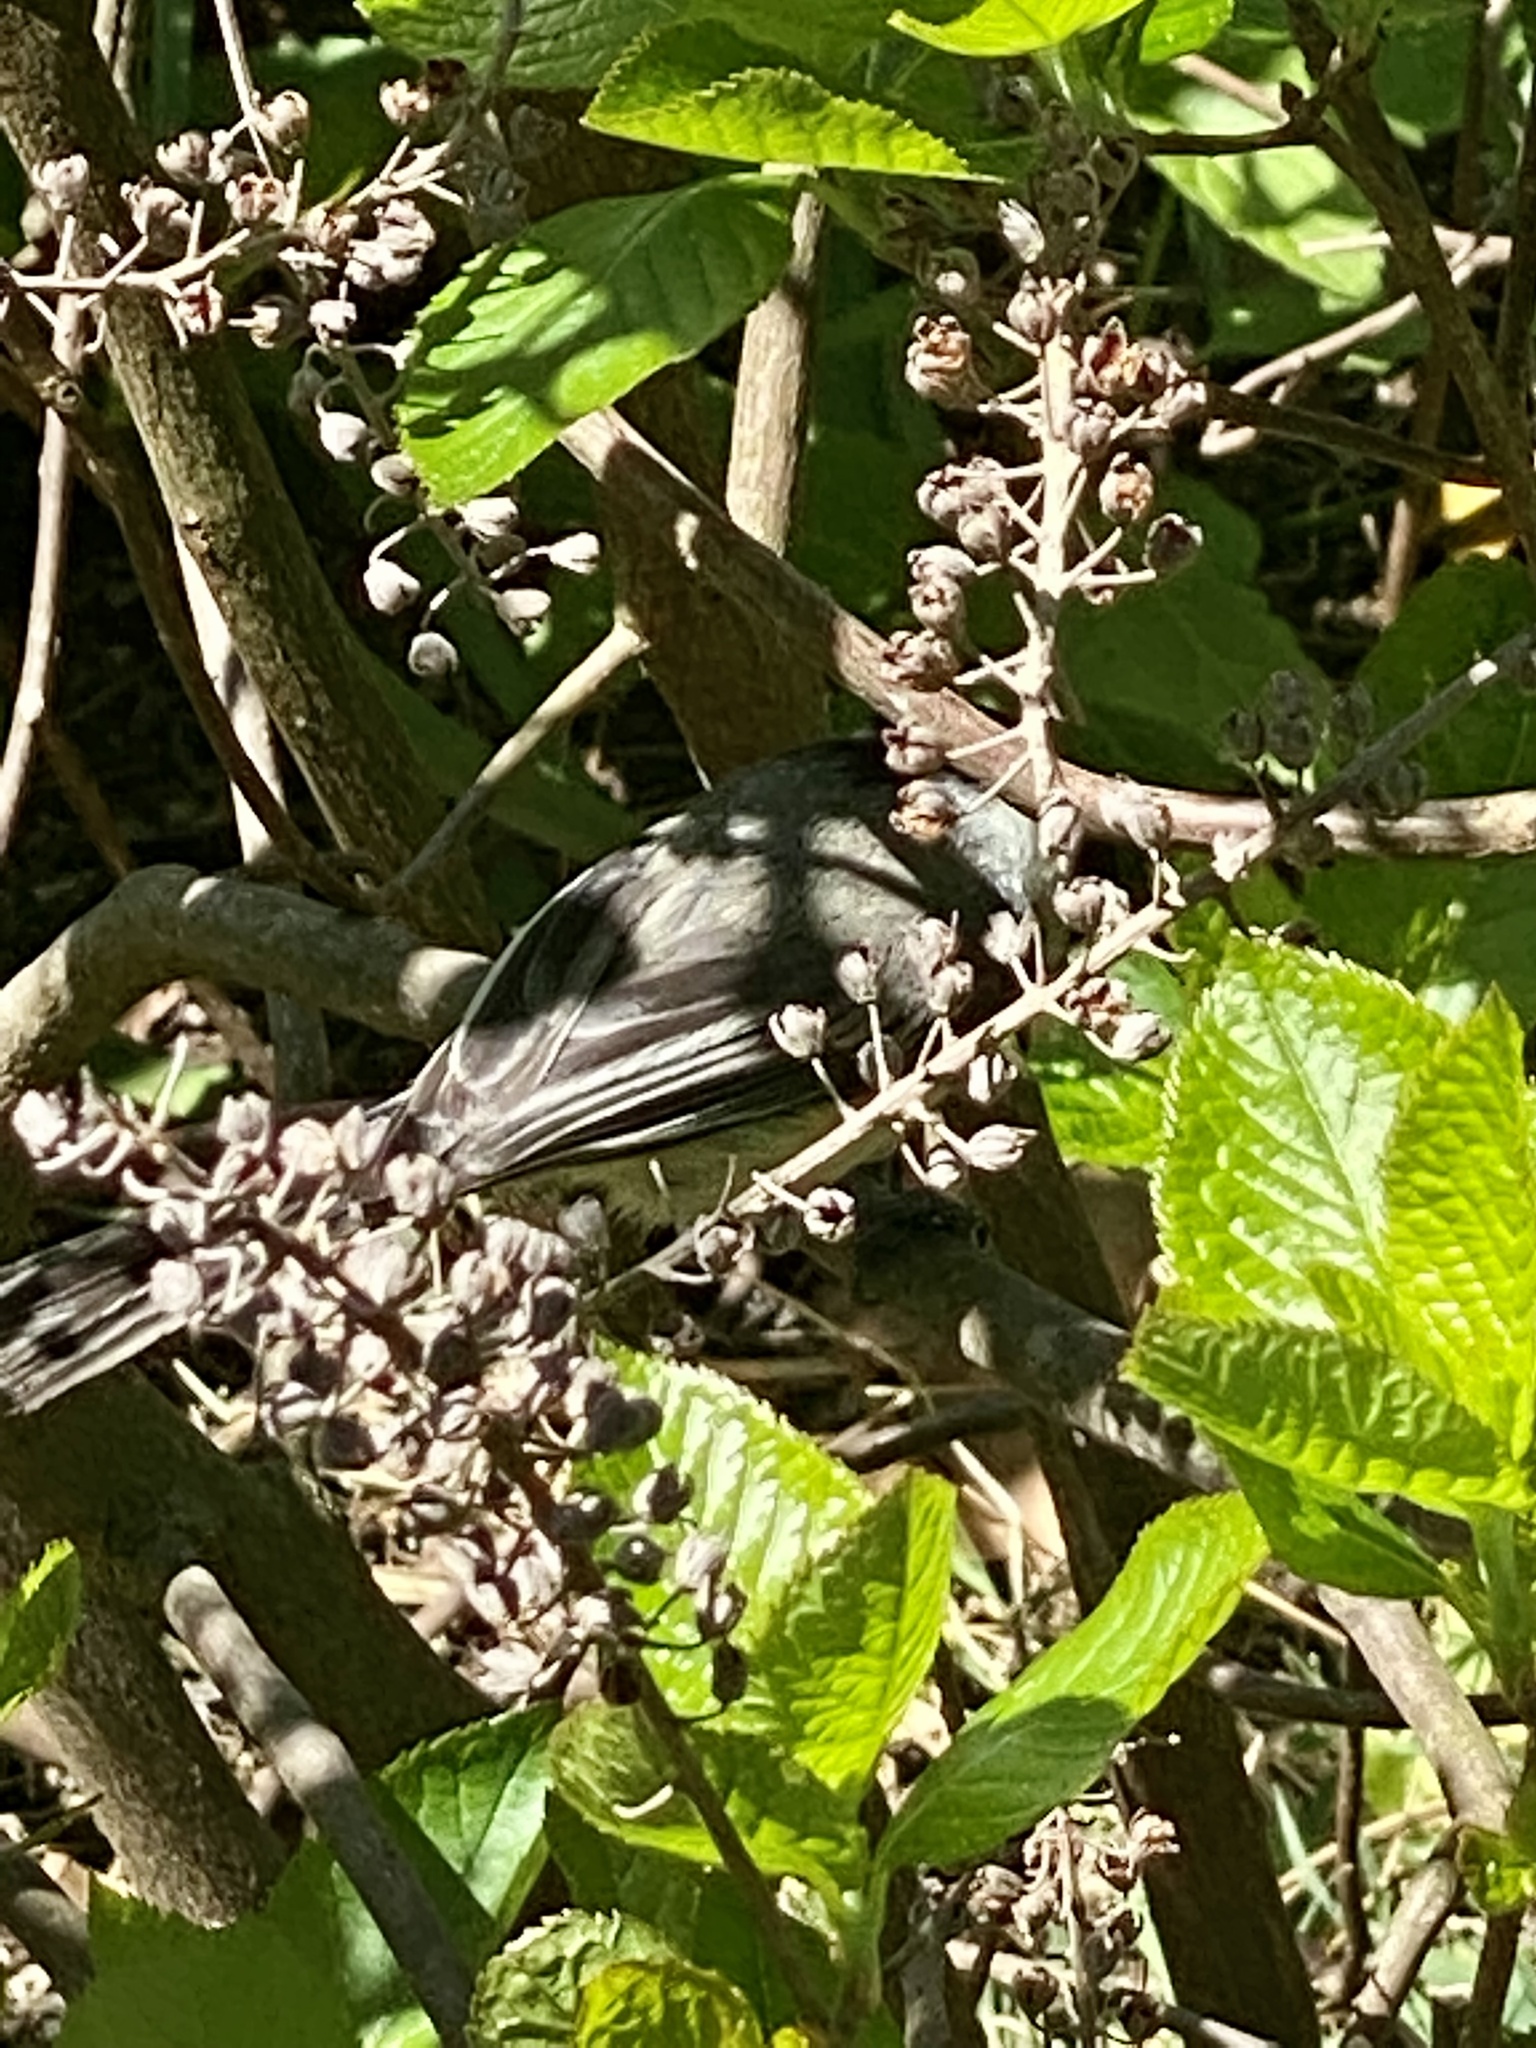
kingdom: Animalia
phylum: Chordata
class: Aves
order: Passeriformes
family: Paridae
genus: Poecile
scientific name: Poecile atricapillus
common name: Black-capped chickadee
